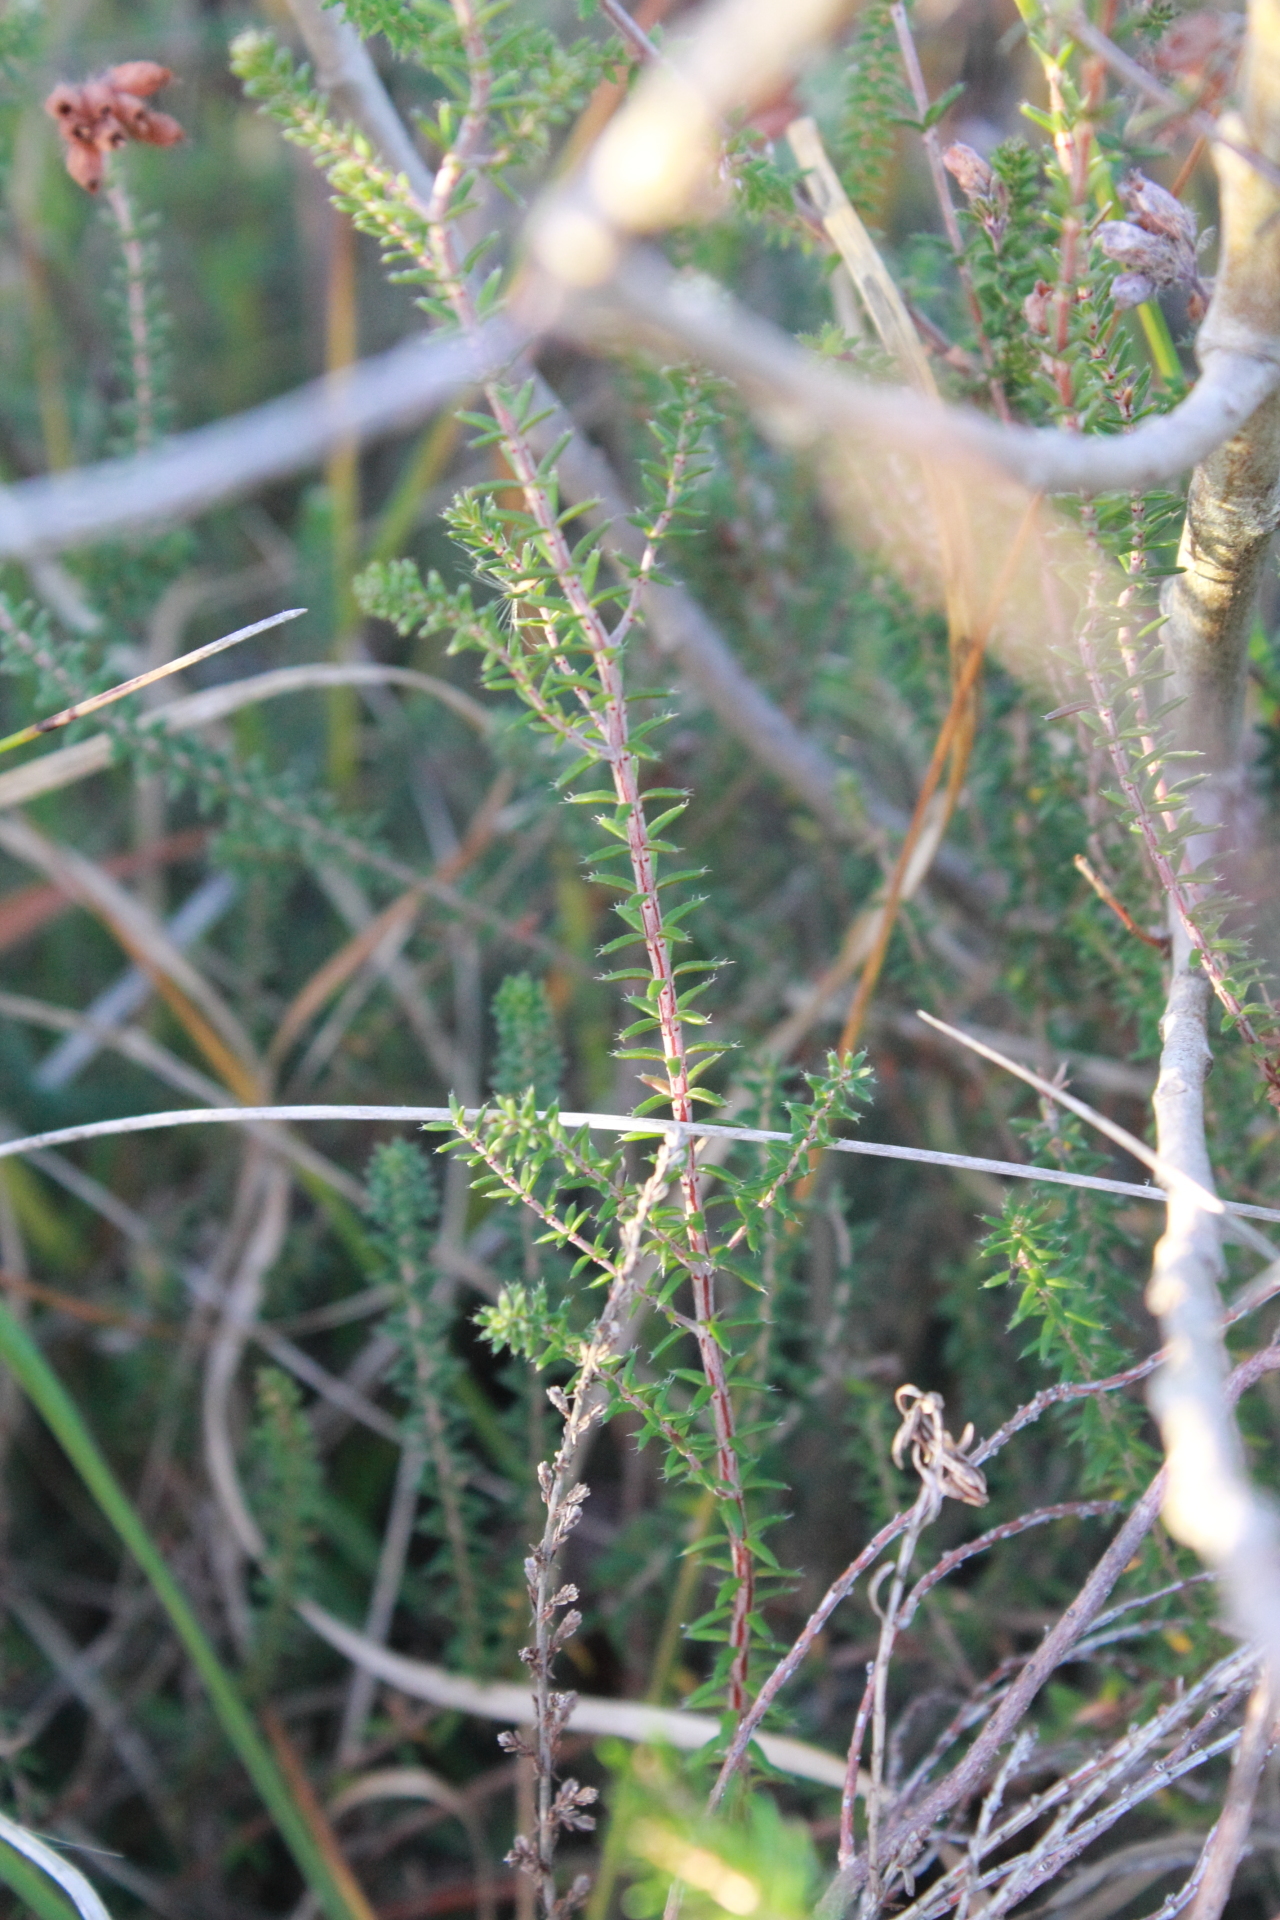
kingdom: Plantae
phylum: Tracheophyta
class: Magnoliopsida
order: Ericales
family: Ericaceae
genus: Erica
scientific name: Erica tetralix
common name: Cross-leaved heath
